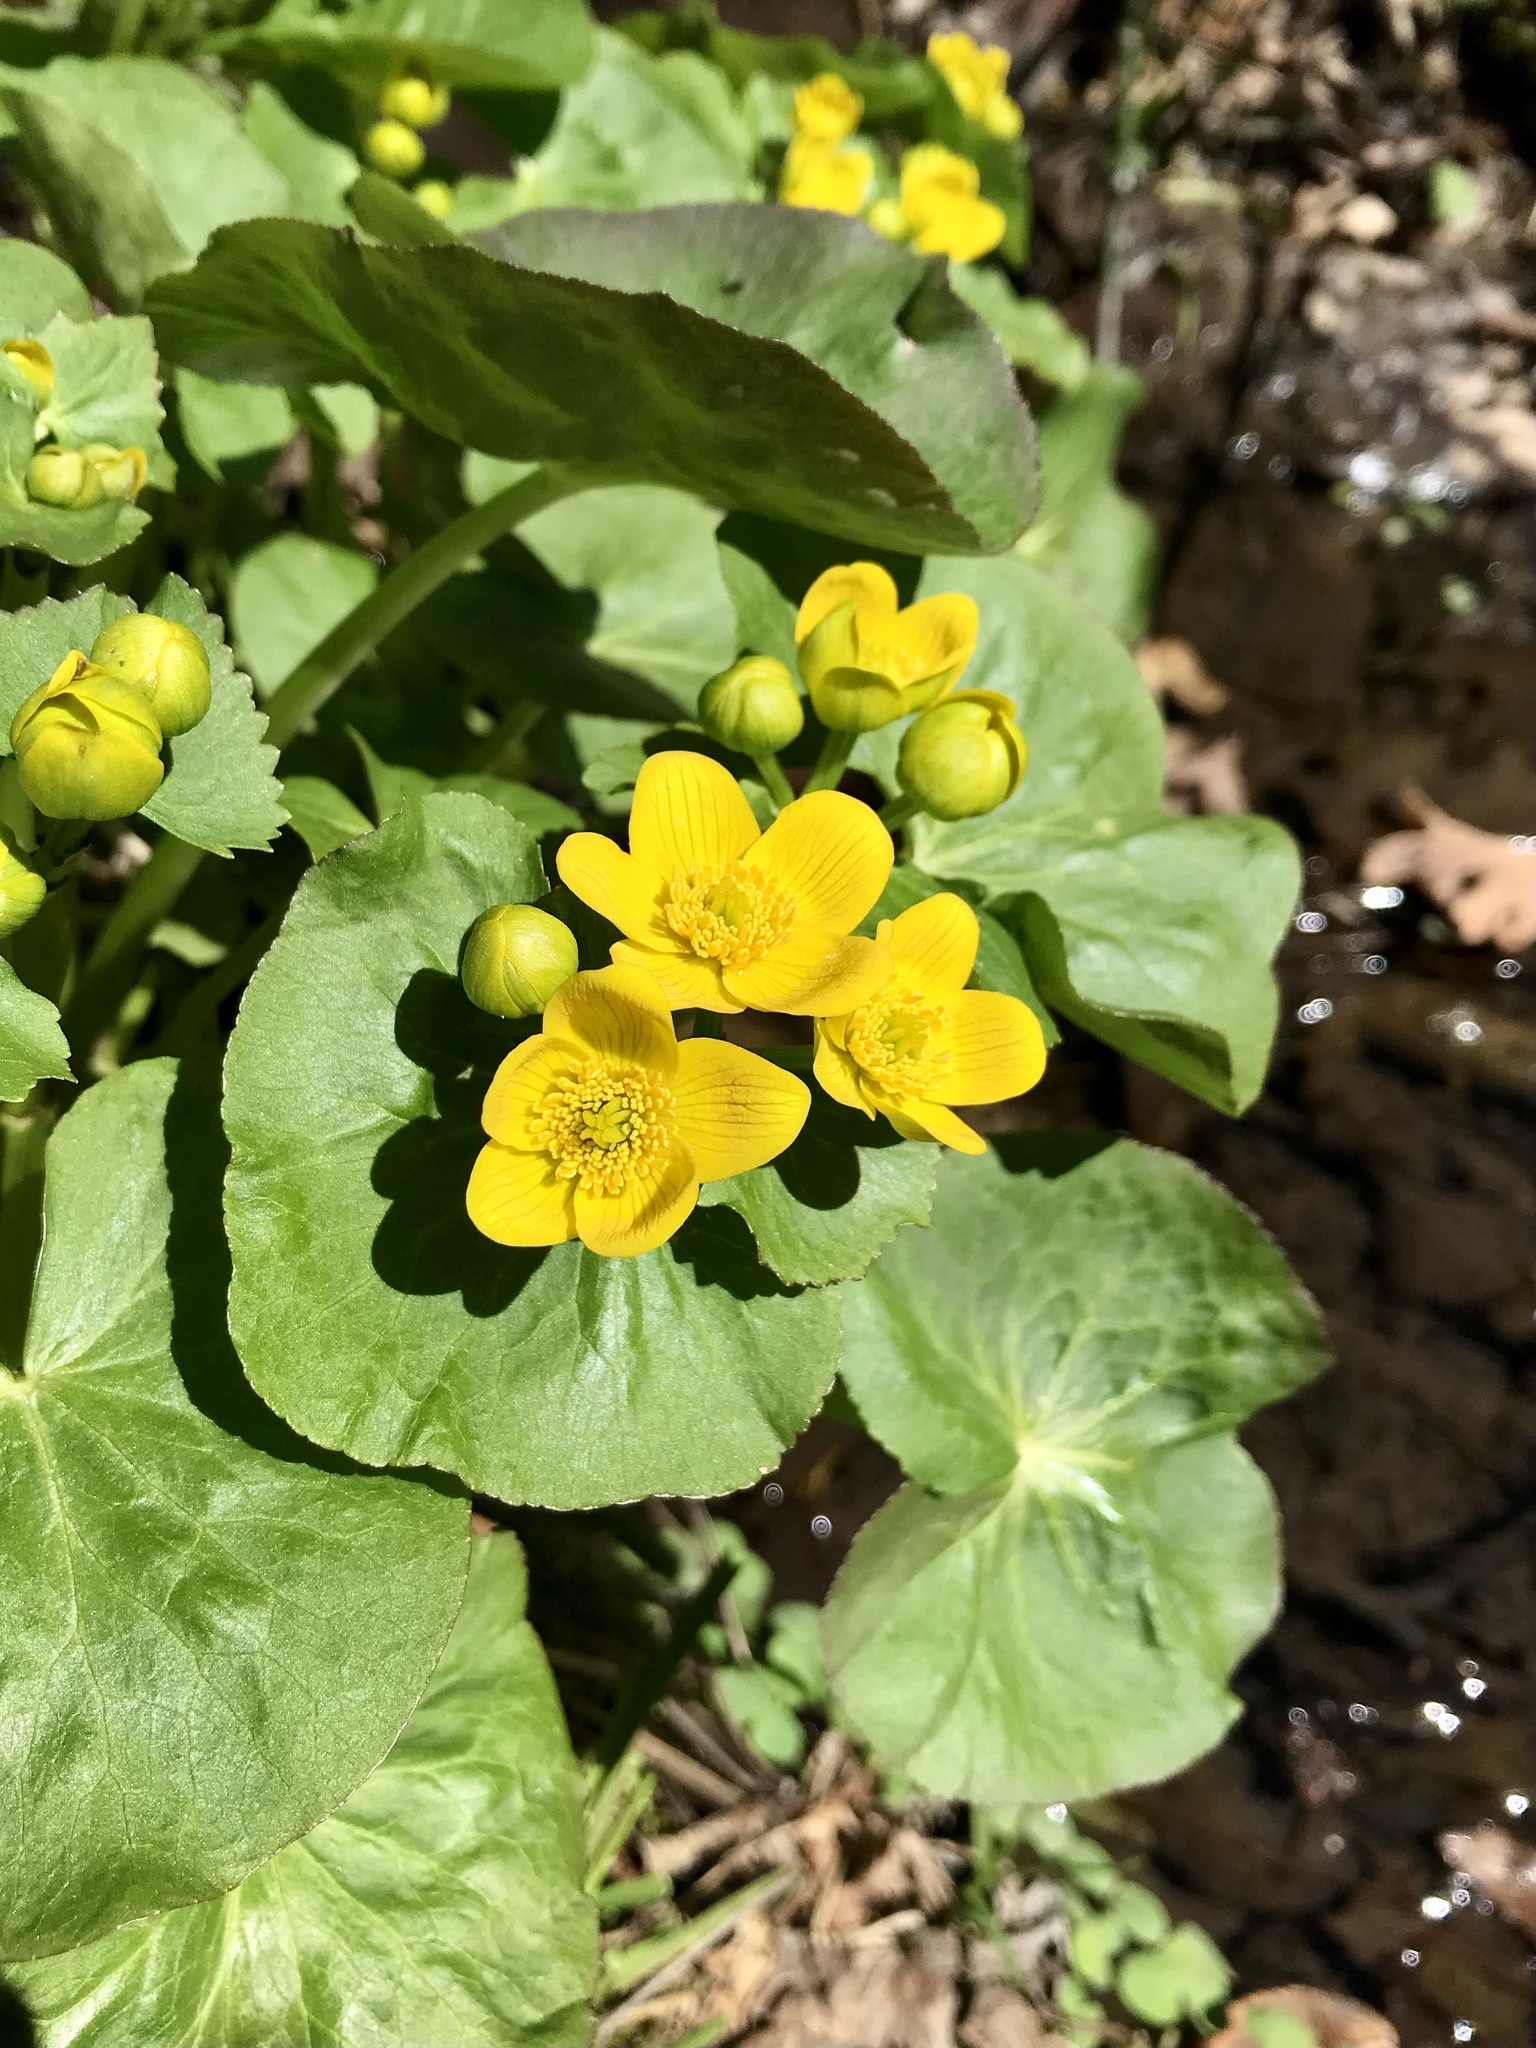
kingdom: Plantae
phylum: Tracheophyta
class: Magnoliopsida
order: Ranunculales
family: Ranunculaceae
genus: Caltha
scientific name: Caltha palustris
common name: Marsh marigold
